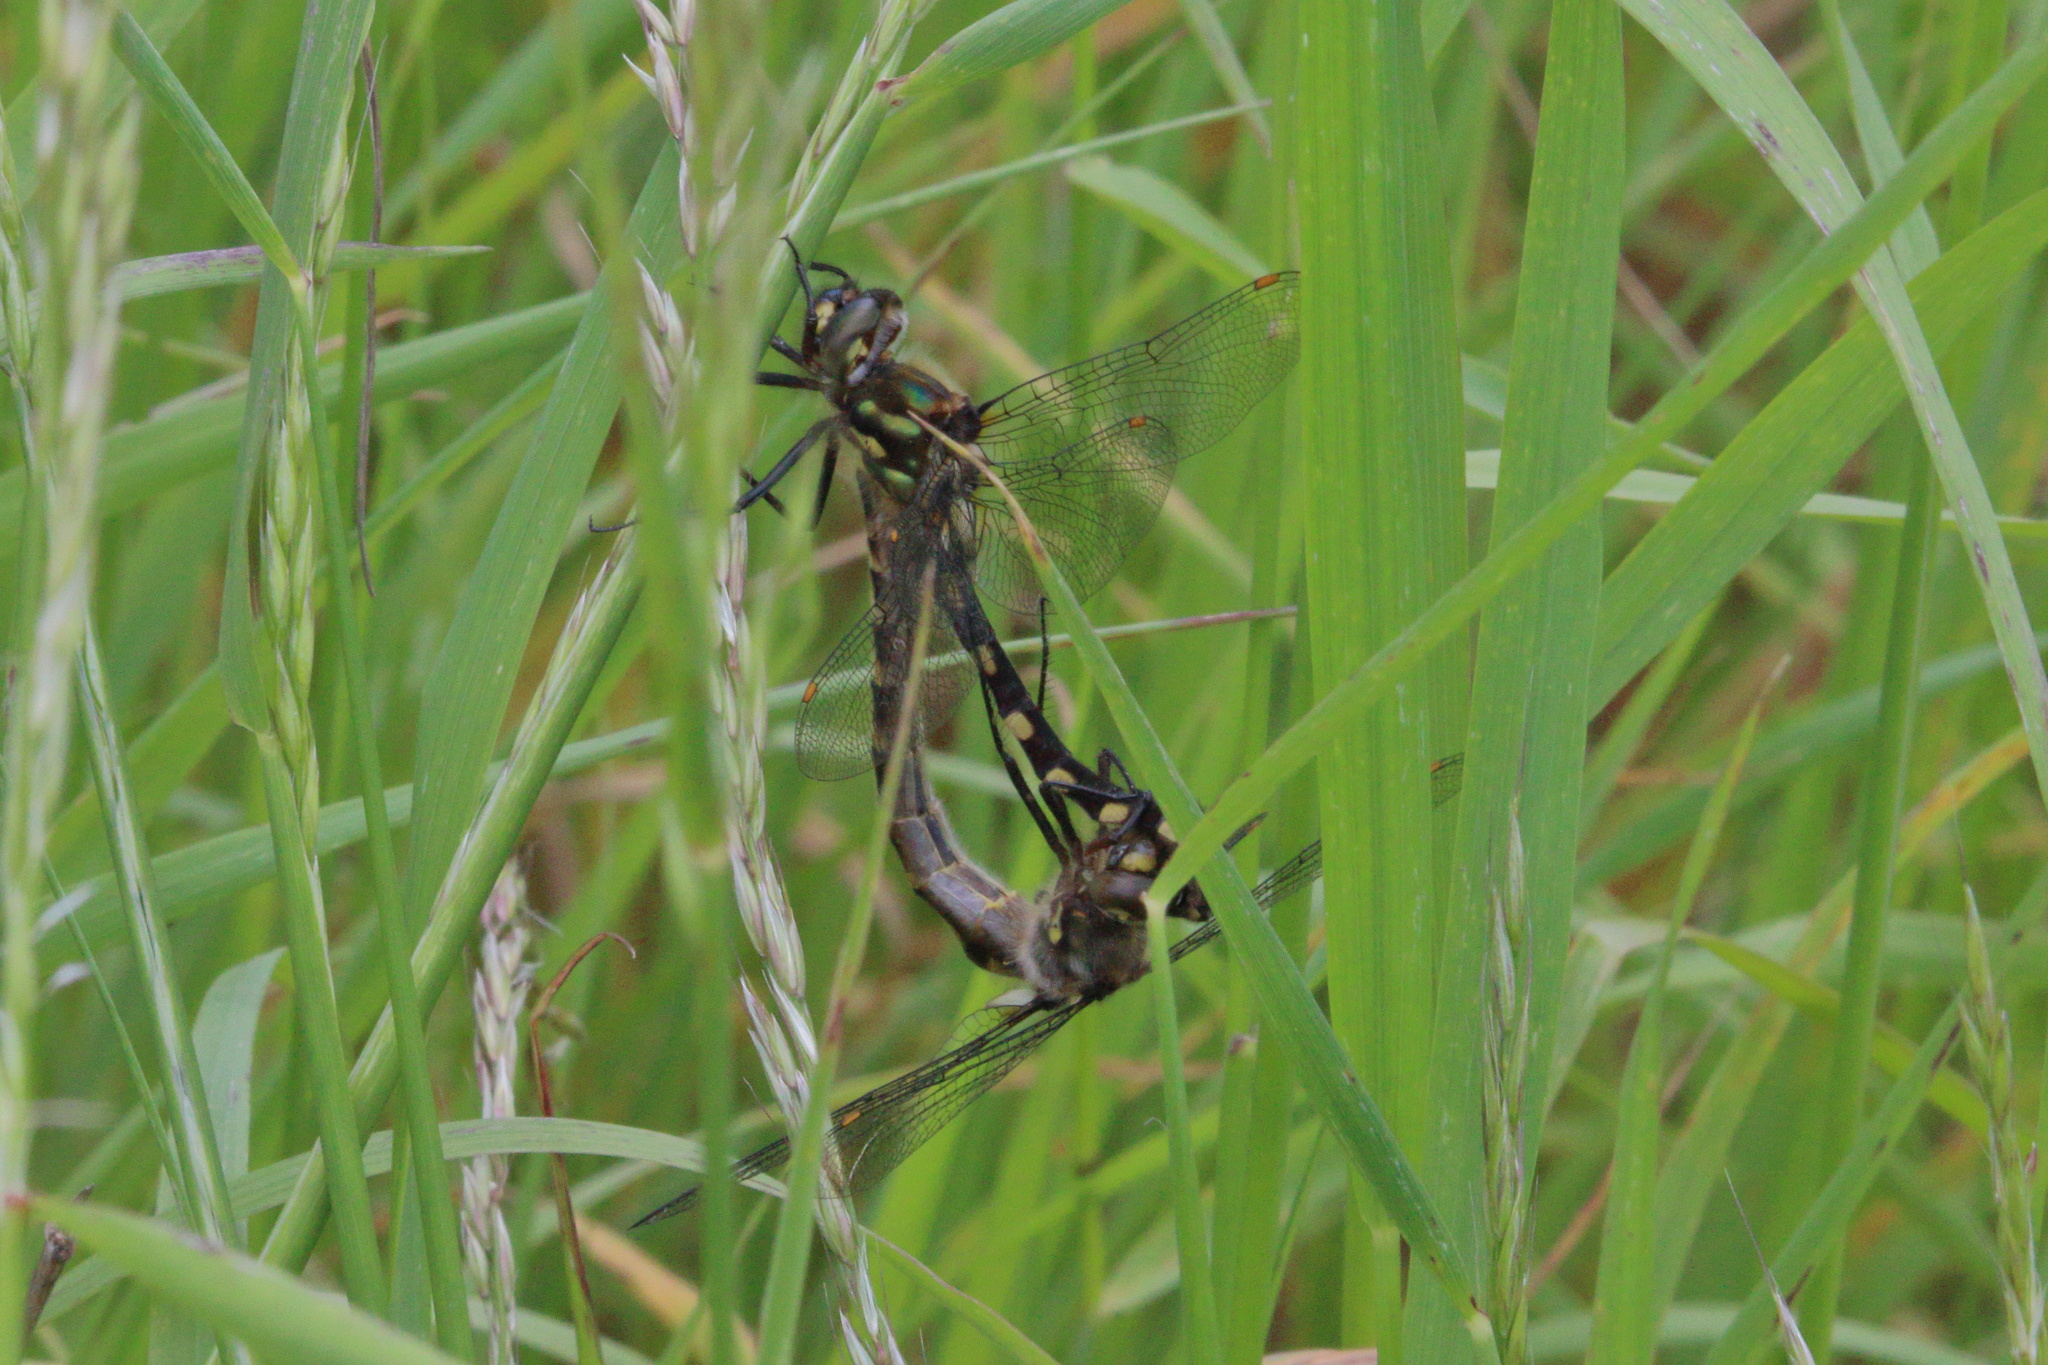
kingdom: Animalia
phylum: Arthropoda
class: Insecta
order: Odonata
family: Corduliidae
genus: Procordulia
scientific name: Procordulia grayi
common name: Yellow spotted dragonfly
